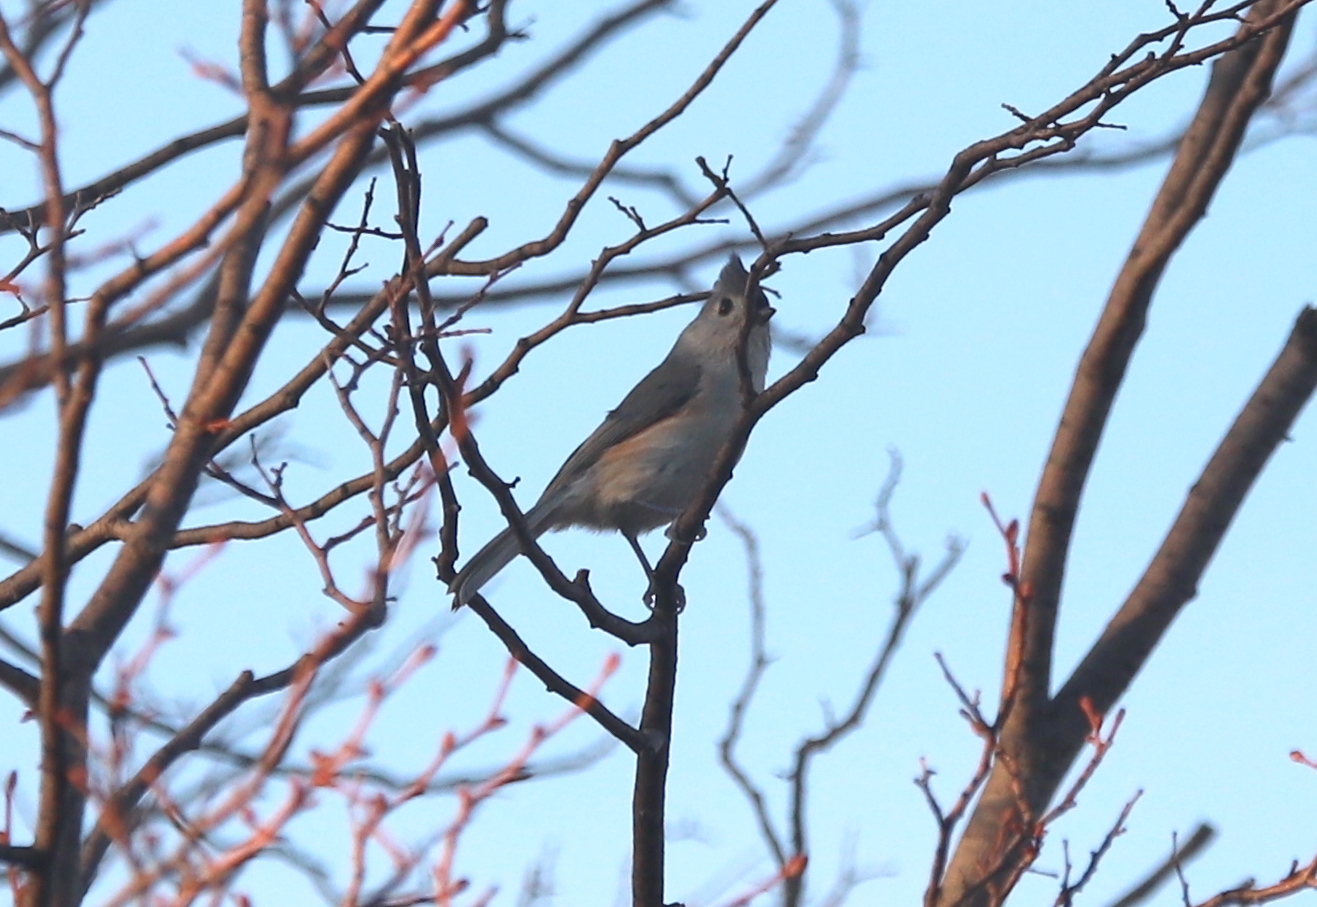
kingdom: Animalia
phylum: Chordata
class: Aves
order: Passeriformes
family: Paridae
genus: Baeolophus
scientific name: Baeolophus bicolor
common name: Tufted titmouse
